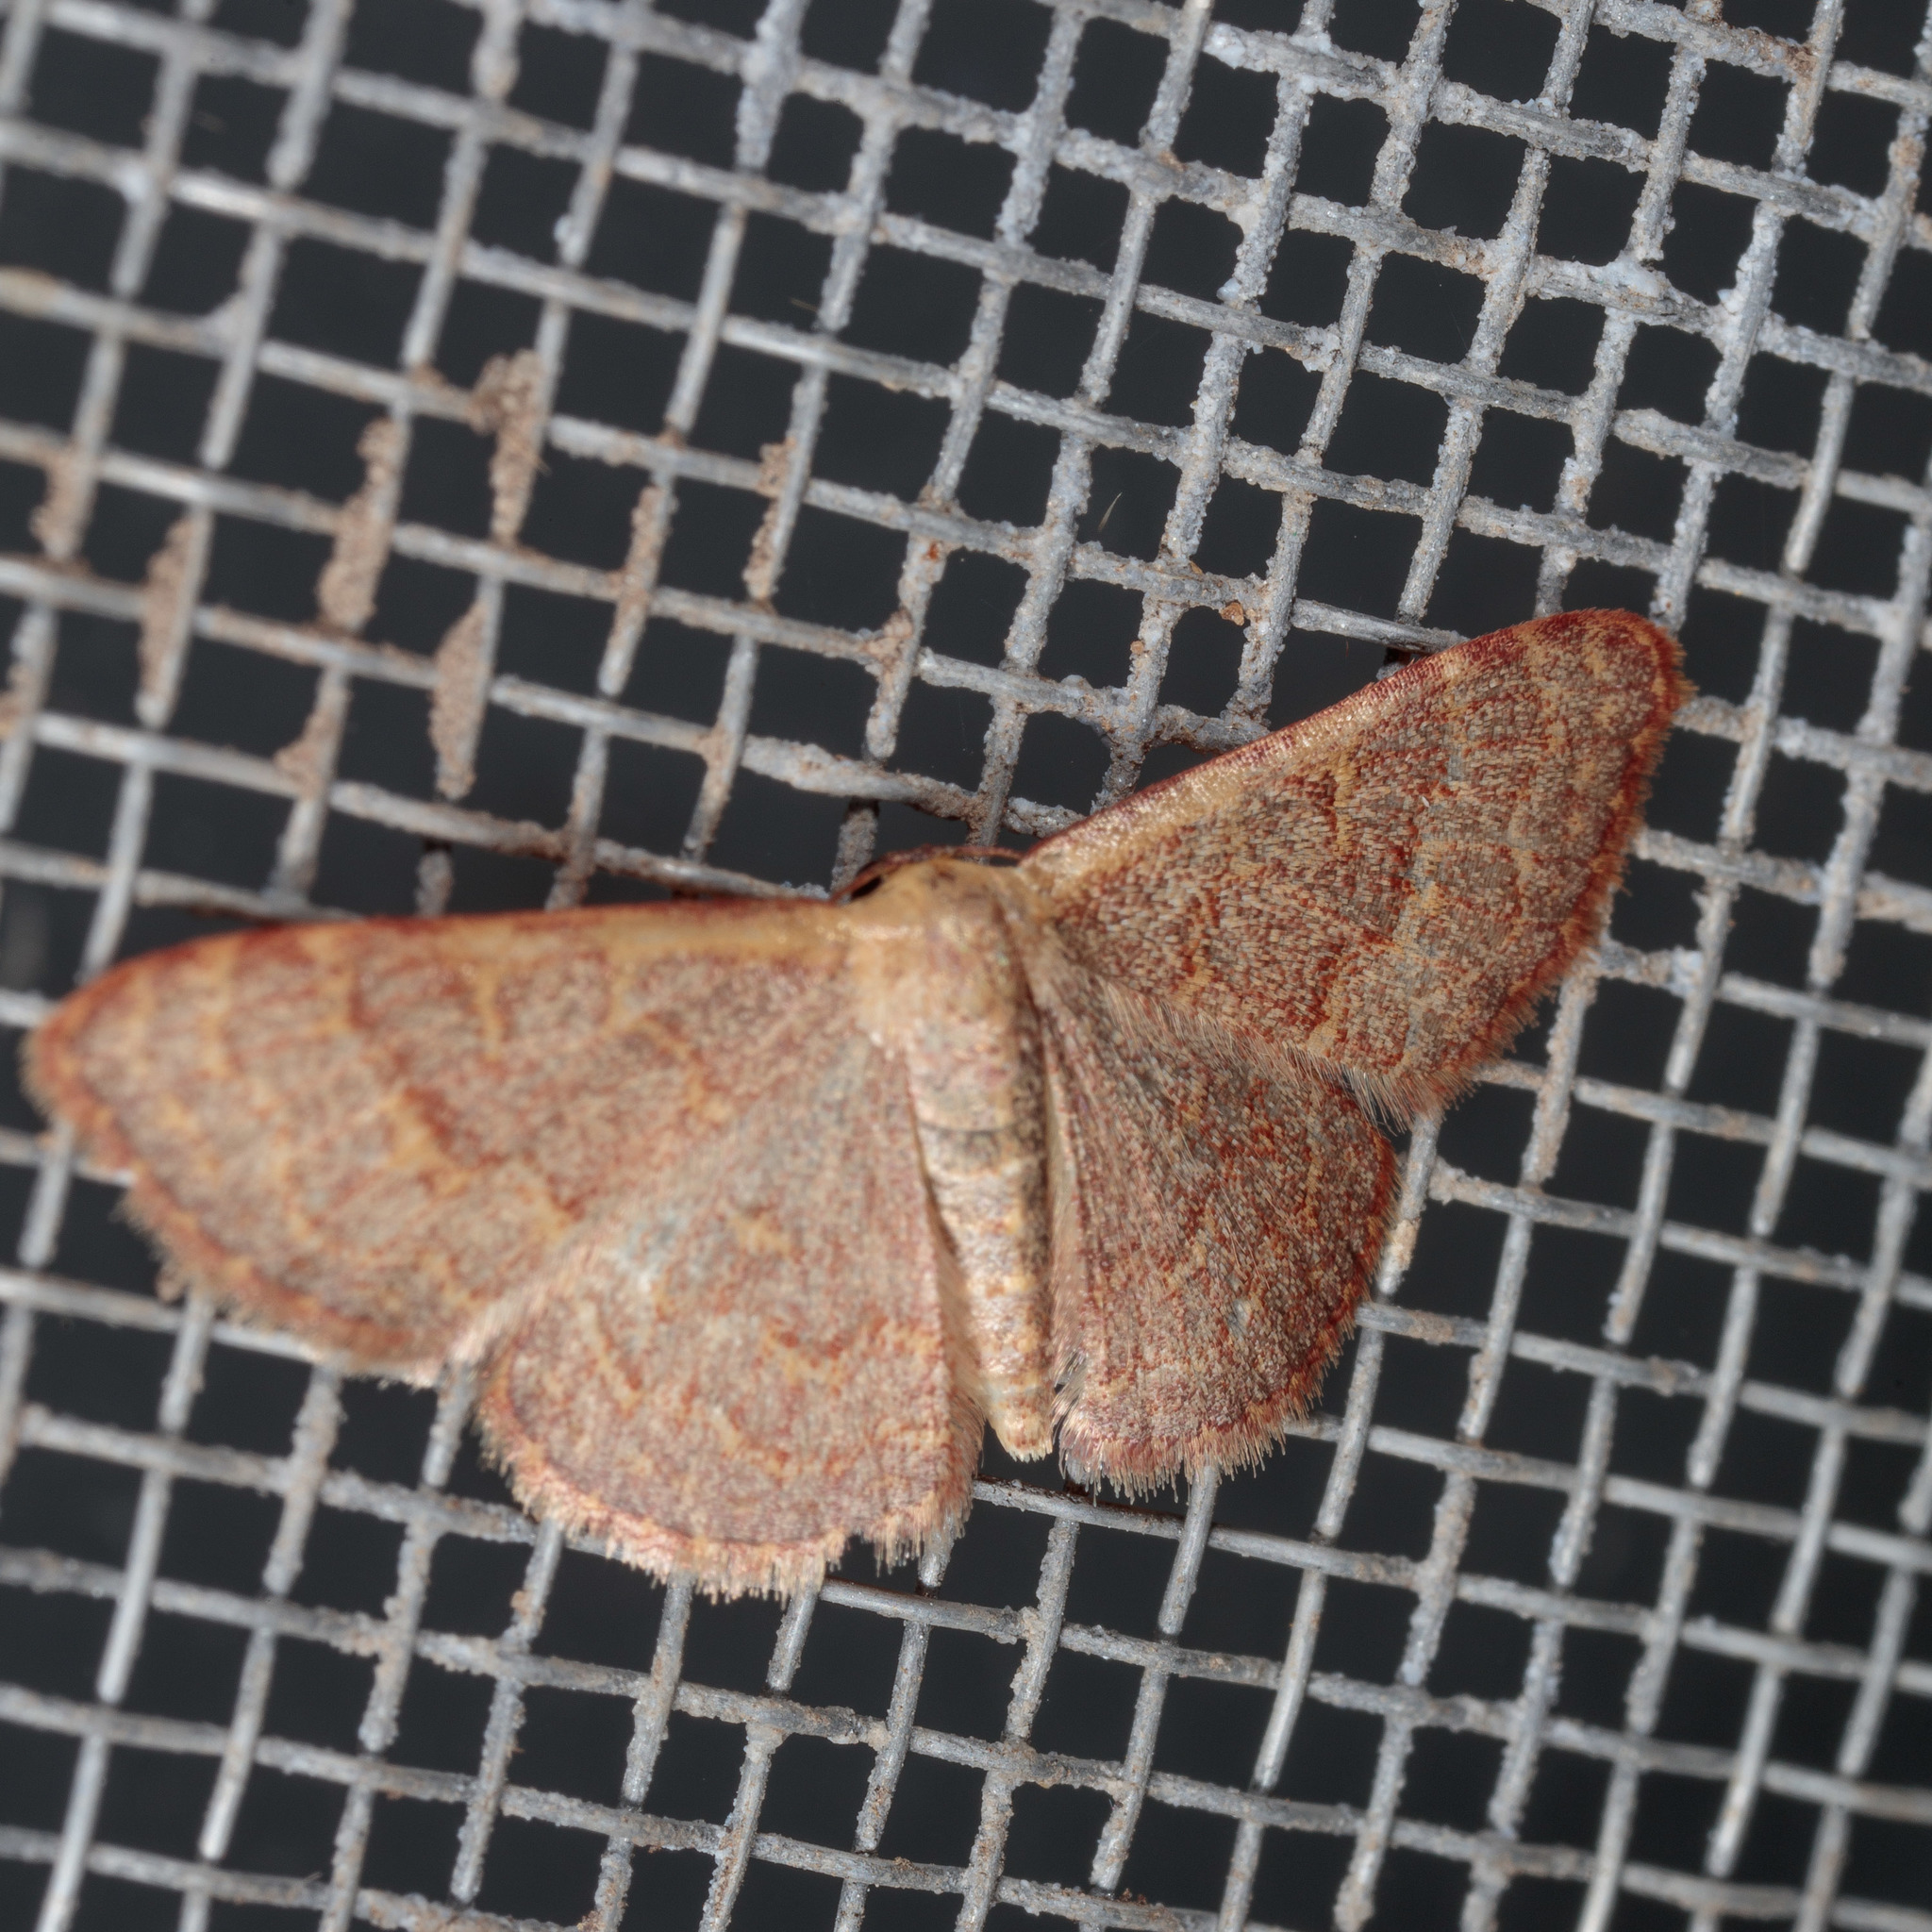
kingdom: Animalia
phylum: Arthropoda
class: Insecta
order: Lepidoptera
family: Geometridae
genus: Leptostales
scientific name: Leptostales pannaria
